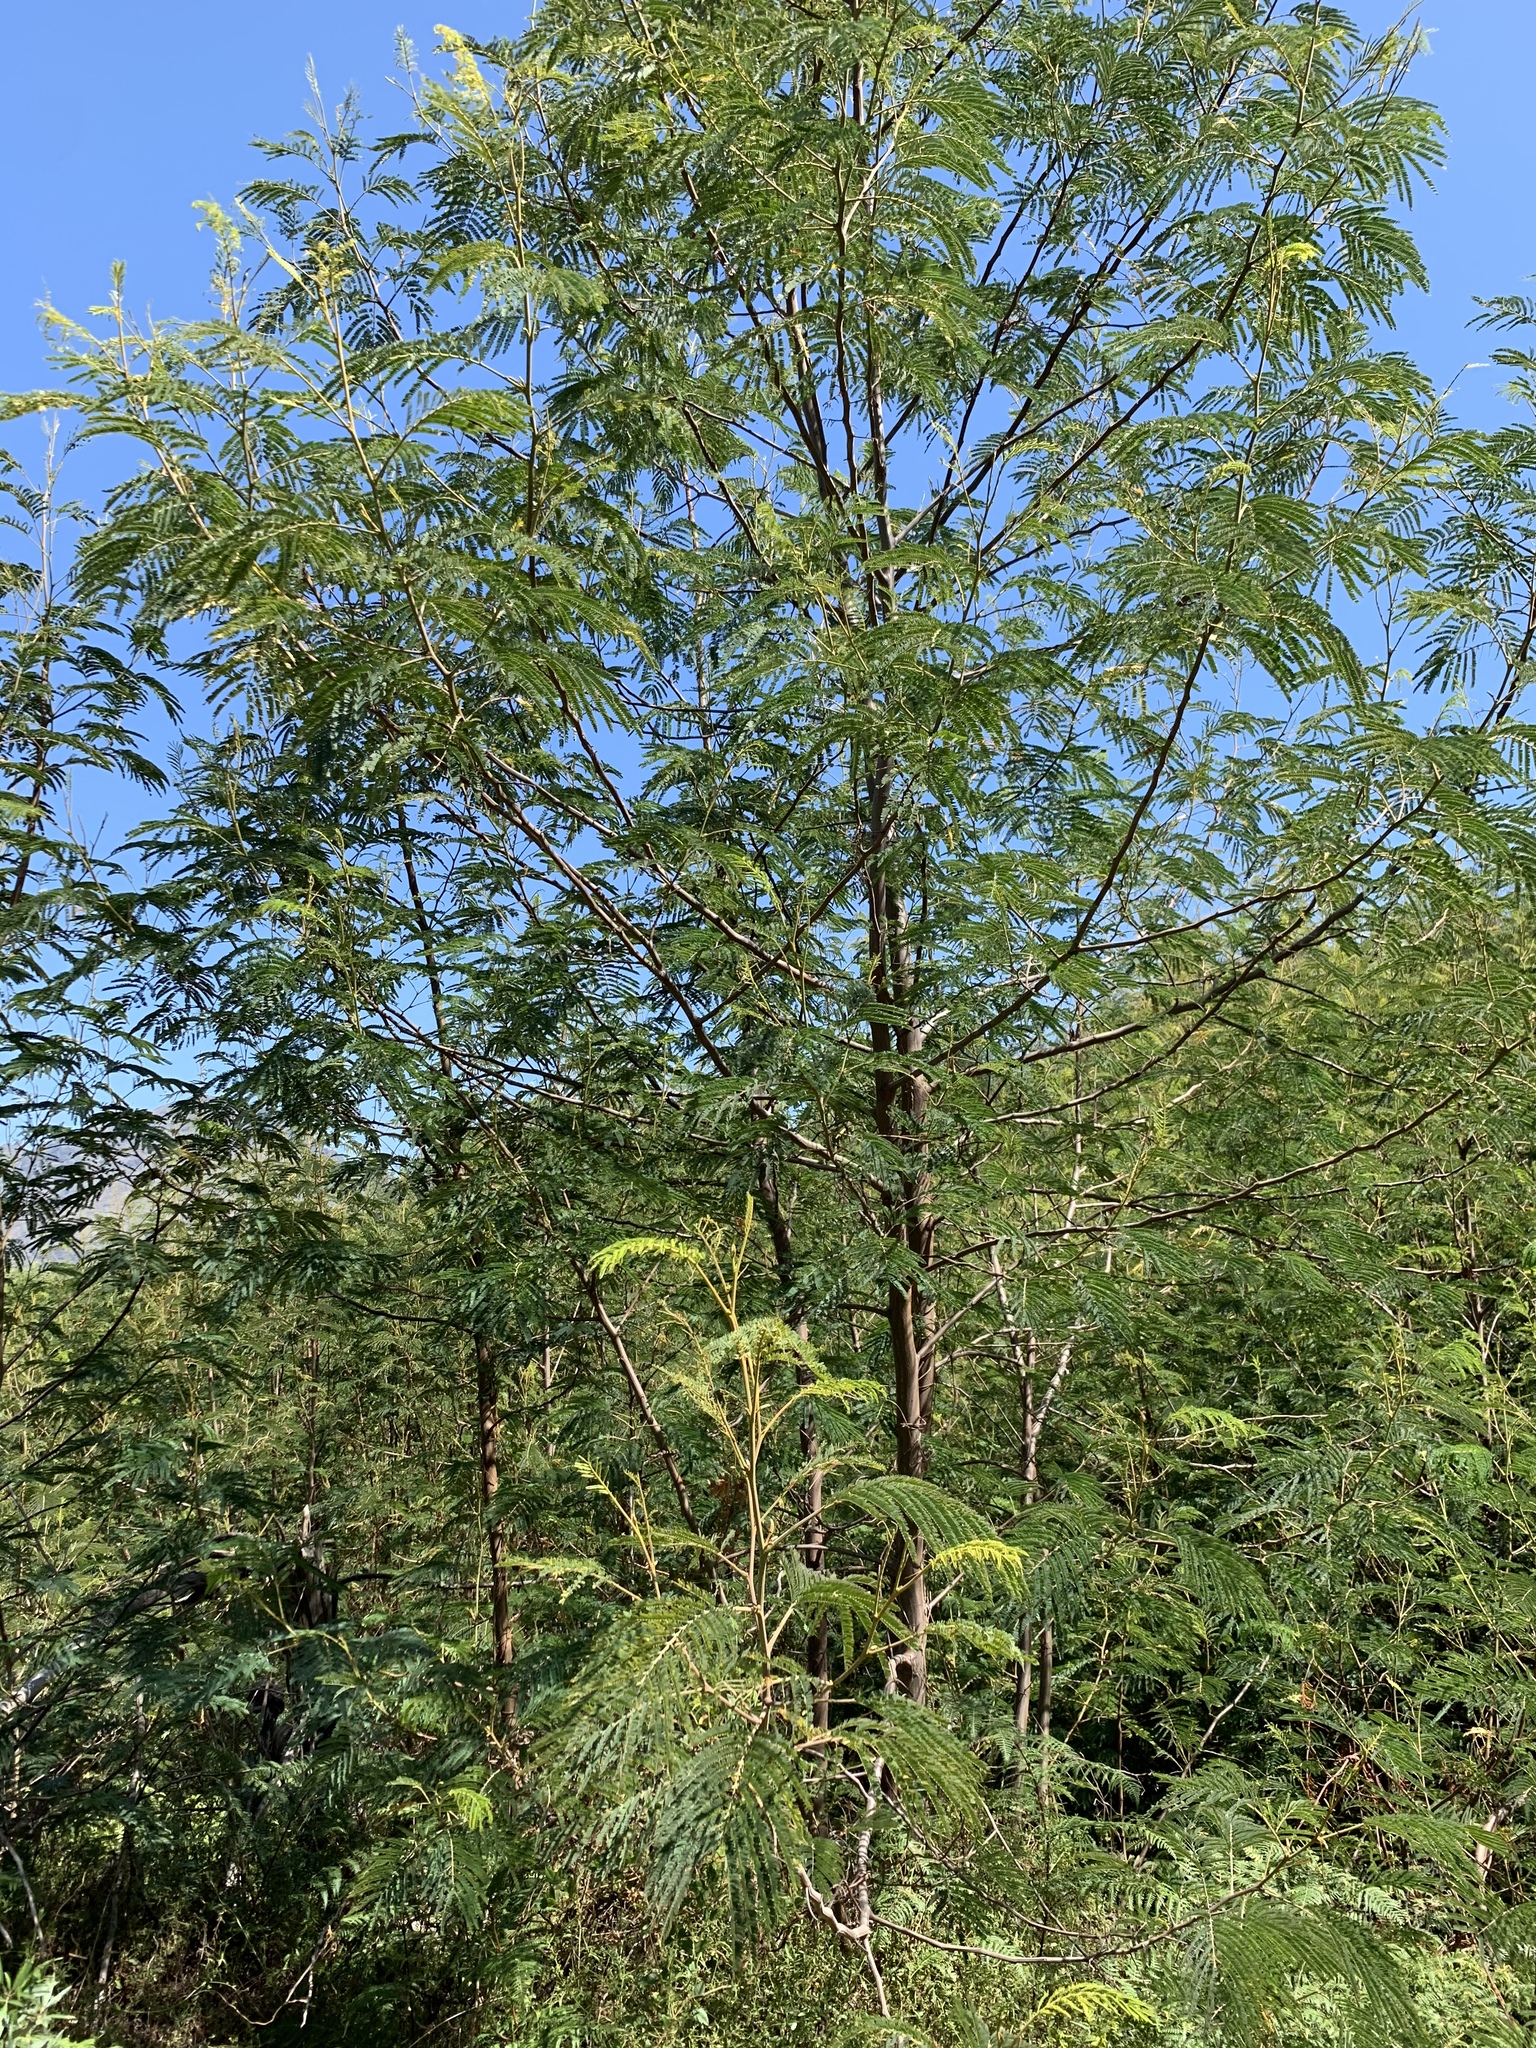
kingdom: Plantae
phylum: Tracheophyta
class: Magnoliopsida
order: Fabales
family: Fabaceae
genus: Paraserianthes
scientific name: Paraserianthes lophantha
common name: Plume albizia
